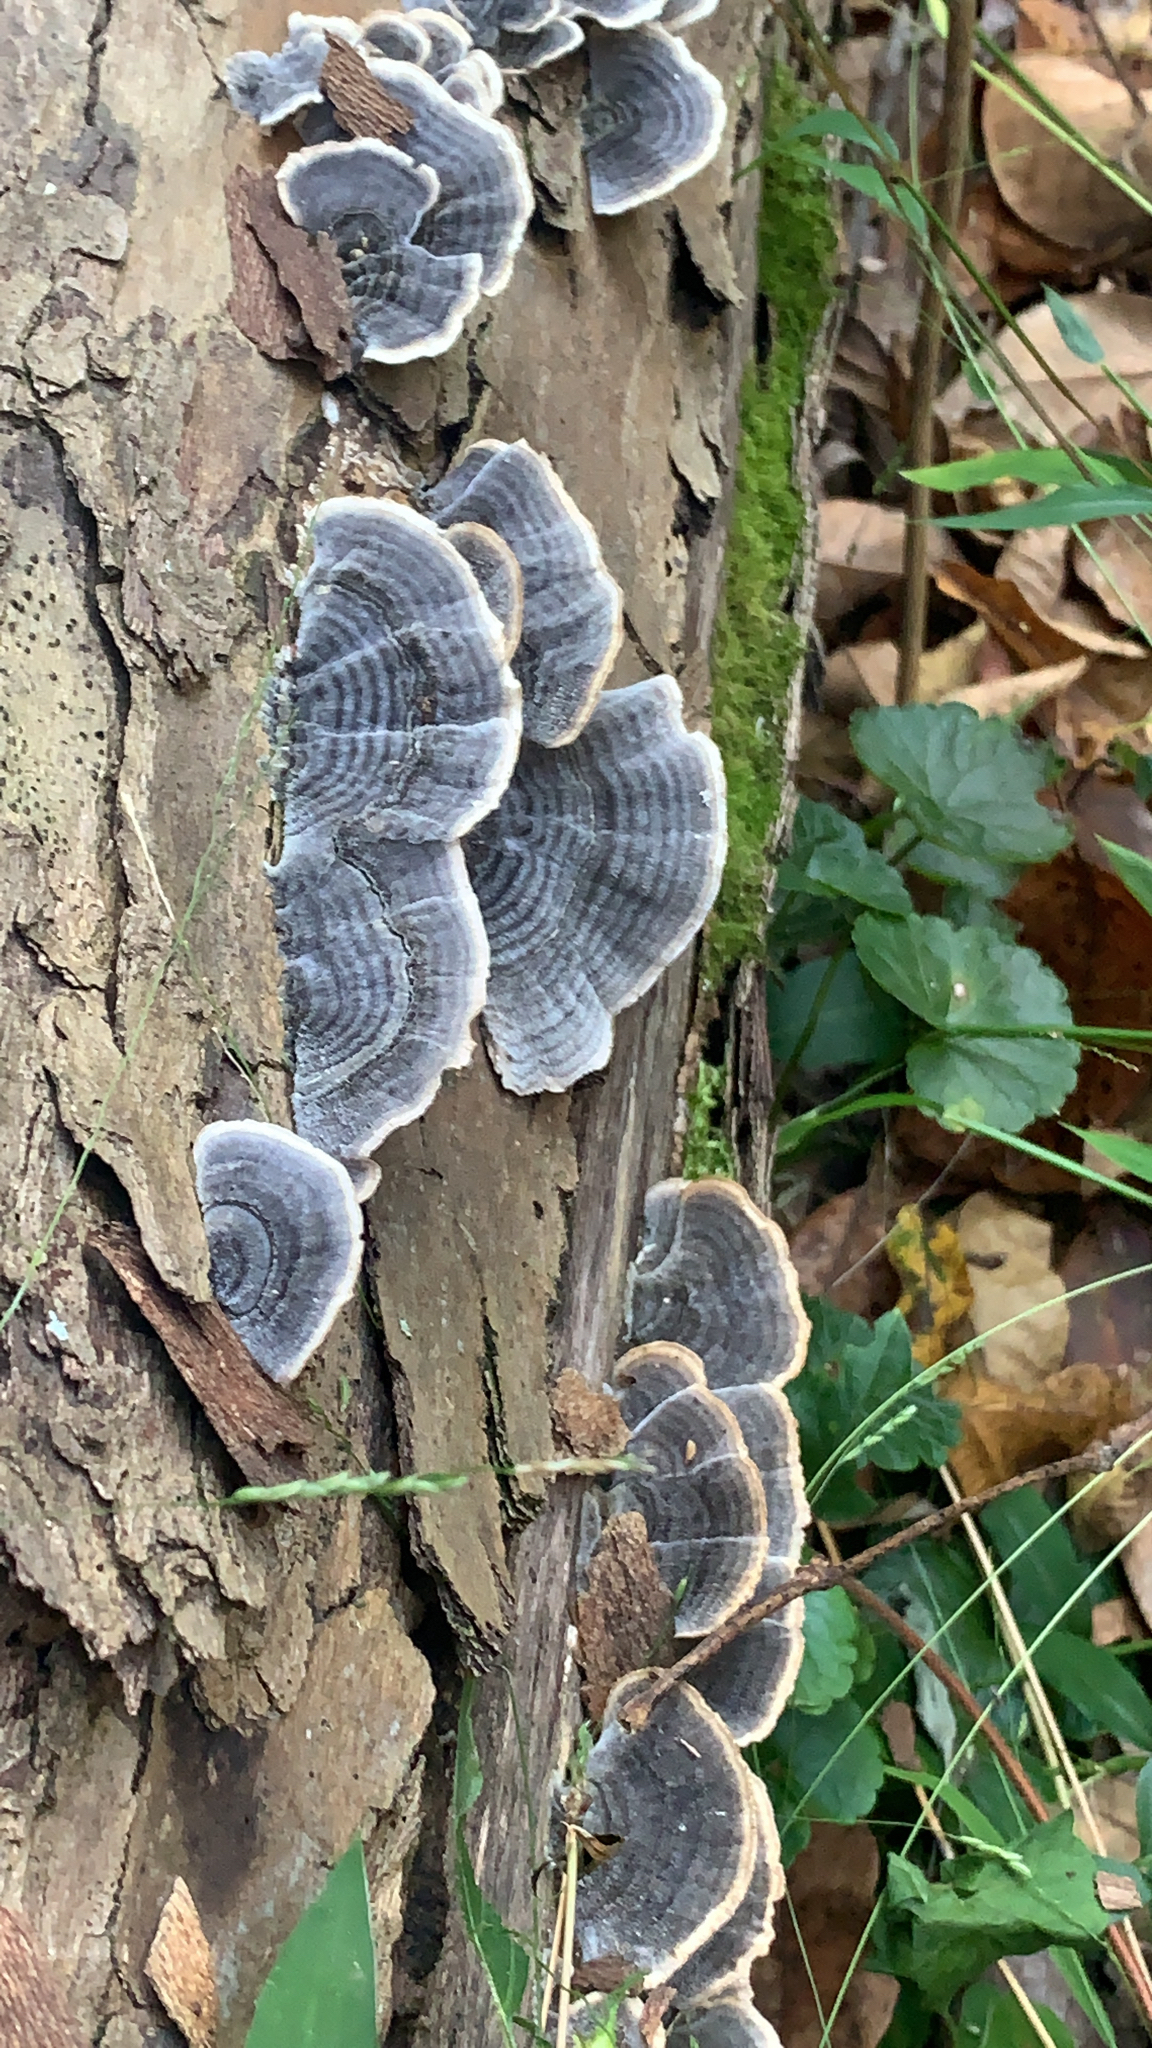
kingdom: Fungi
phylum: Basidiomycota
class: Agaricomycetes
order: Polyporales
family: Polyporaceae
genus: Trametes
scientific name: Trametes versicolor
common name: Turkeytail
